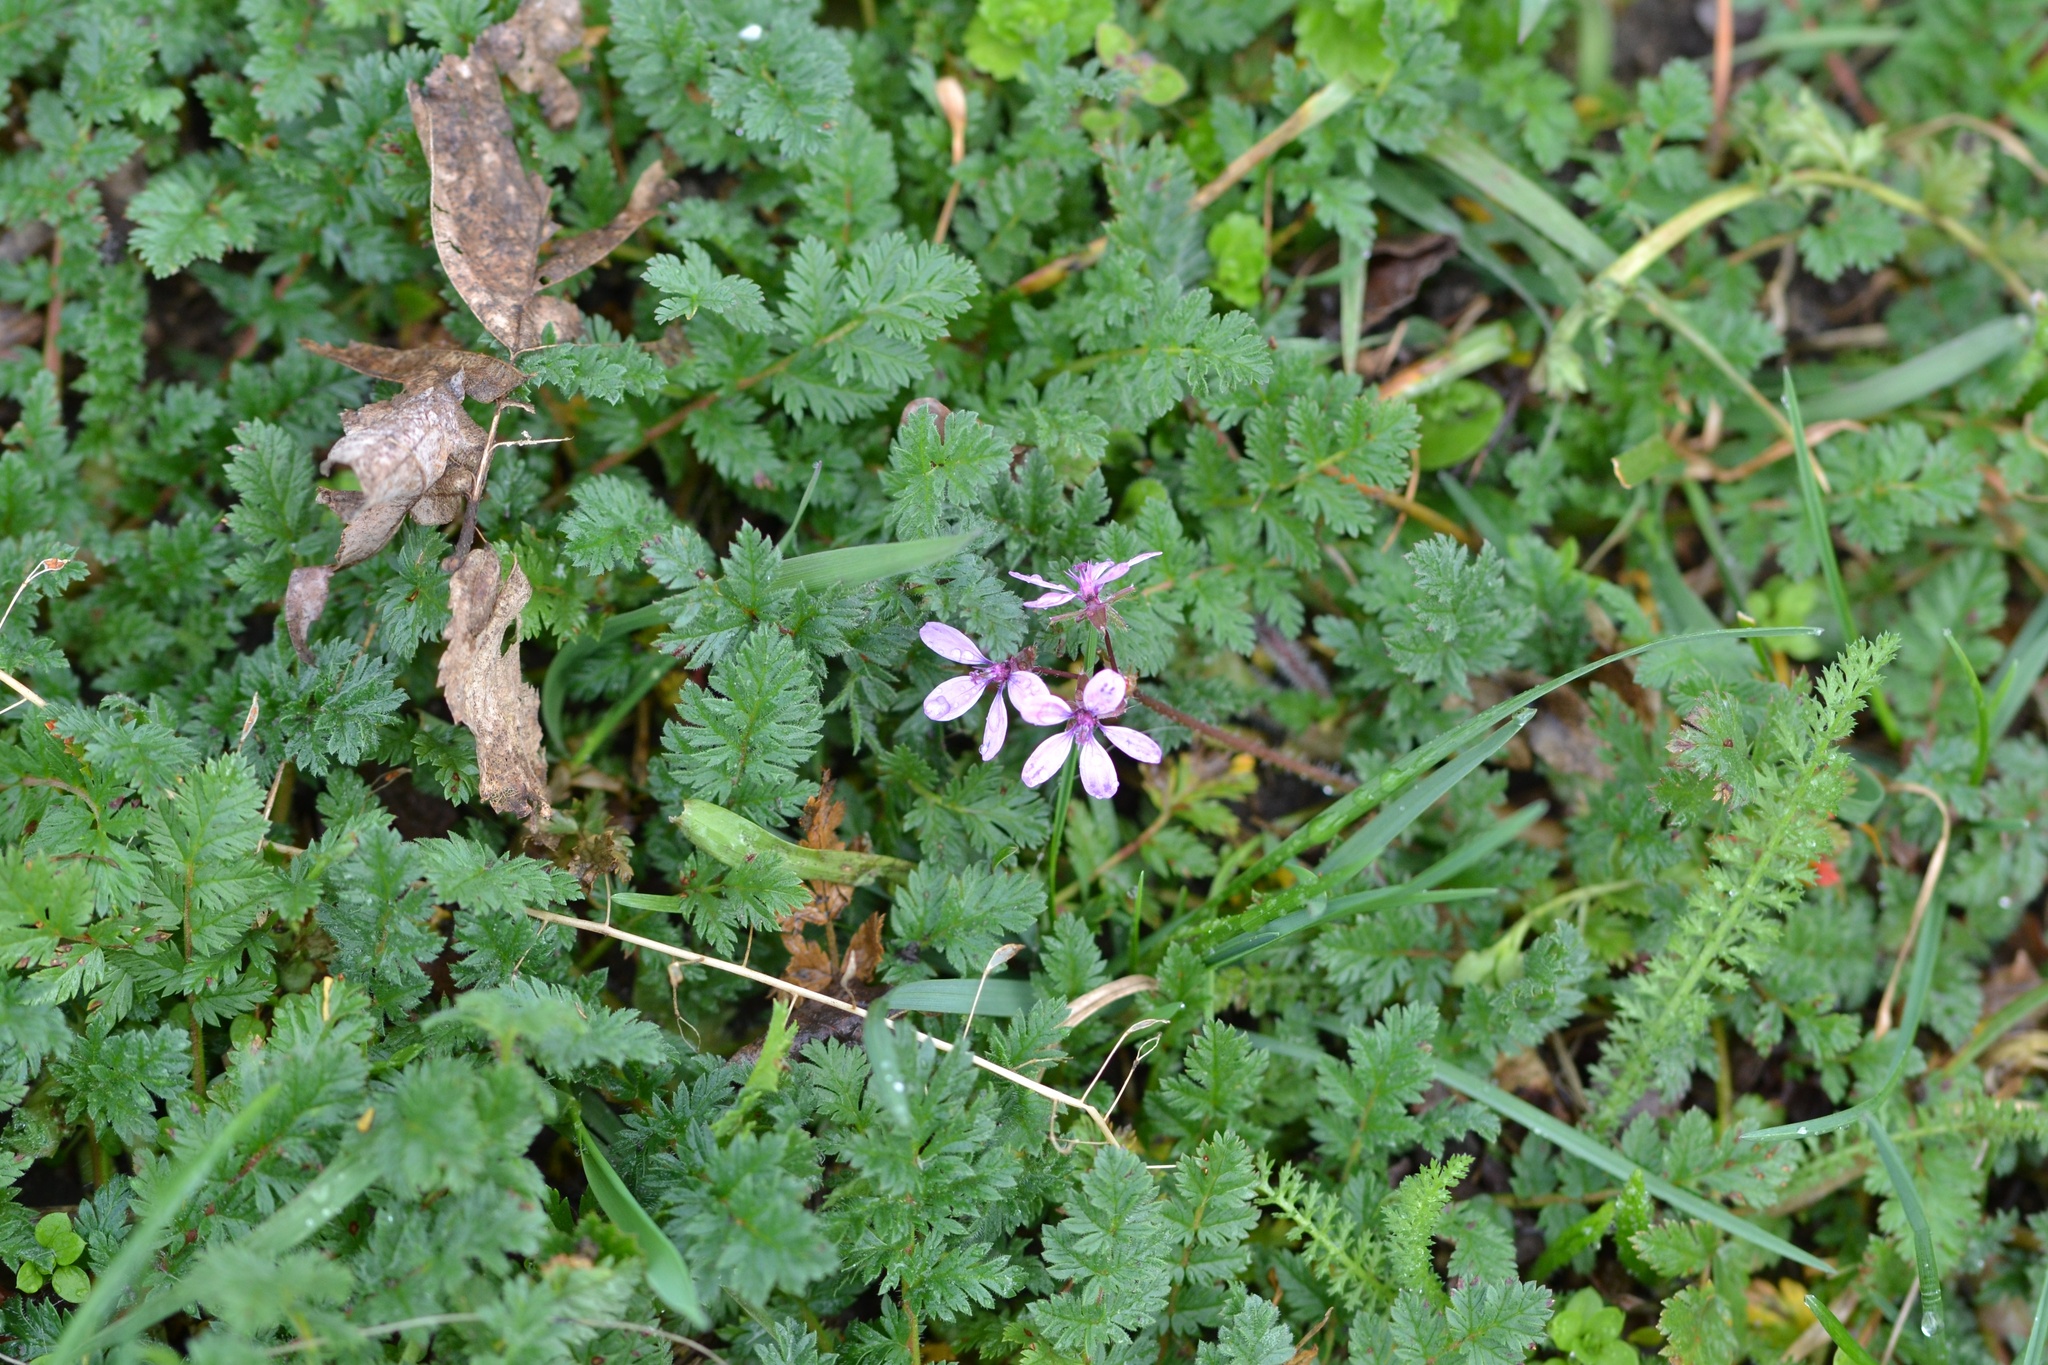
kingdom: Plantae
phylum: Tracheophyta
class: Magnoliopsida
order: Geraniales
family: Geraniaceae
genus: Erodium
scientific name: Erodium cicutarium
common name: Common stork's-bill
